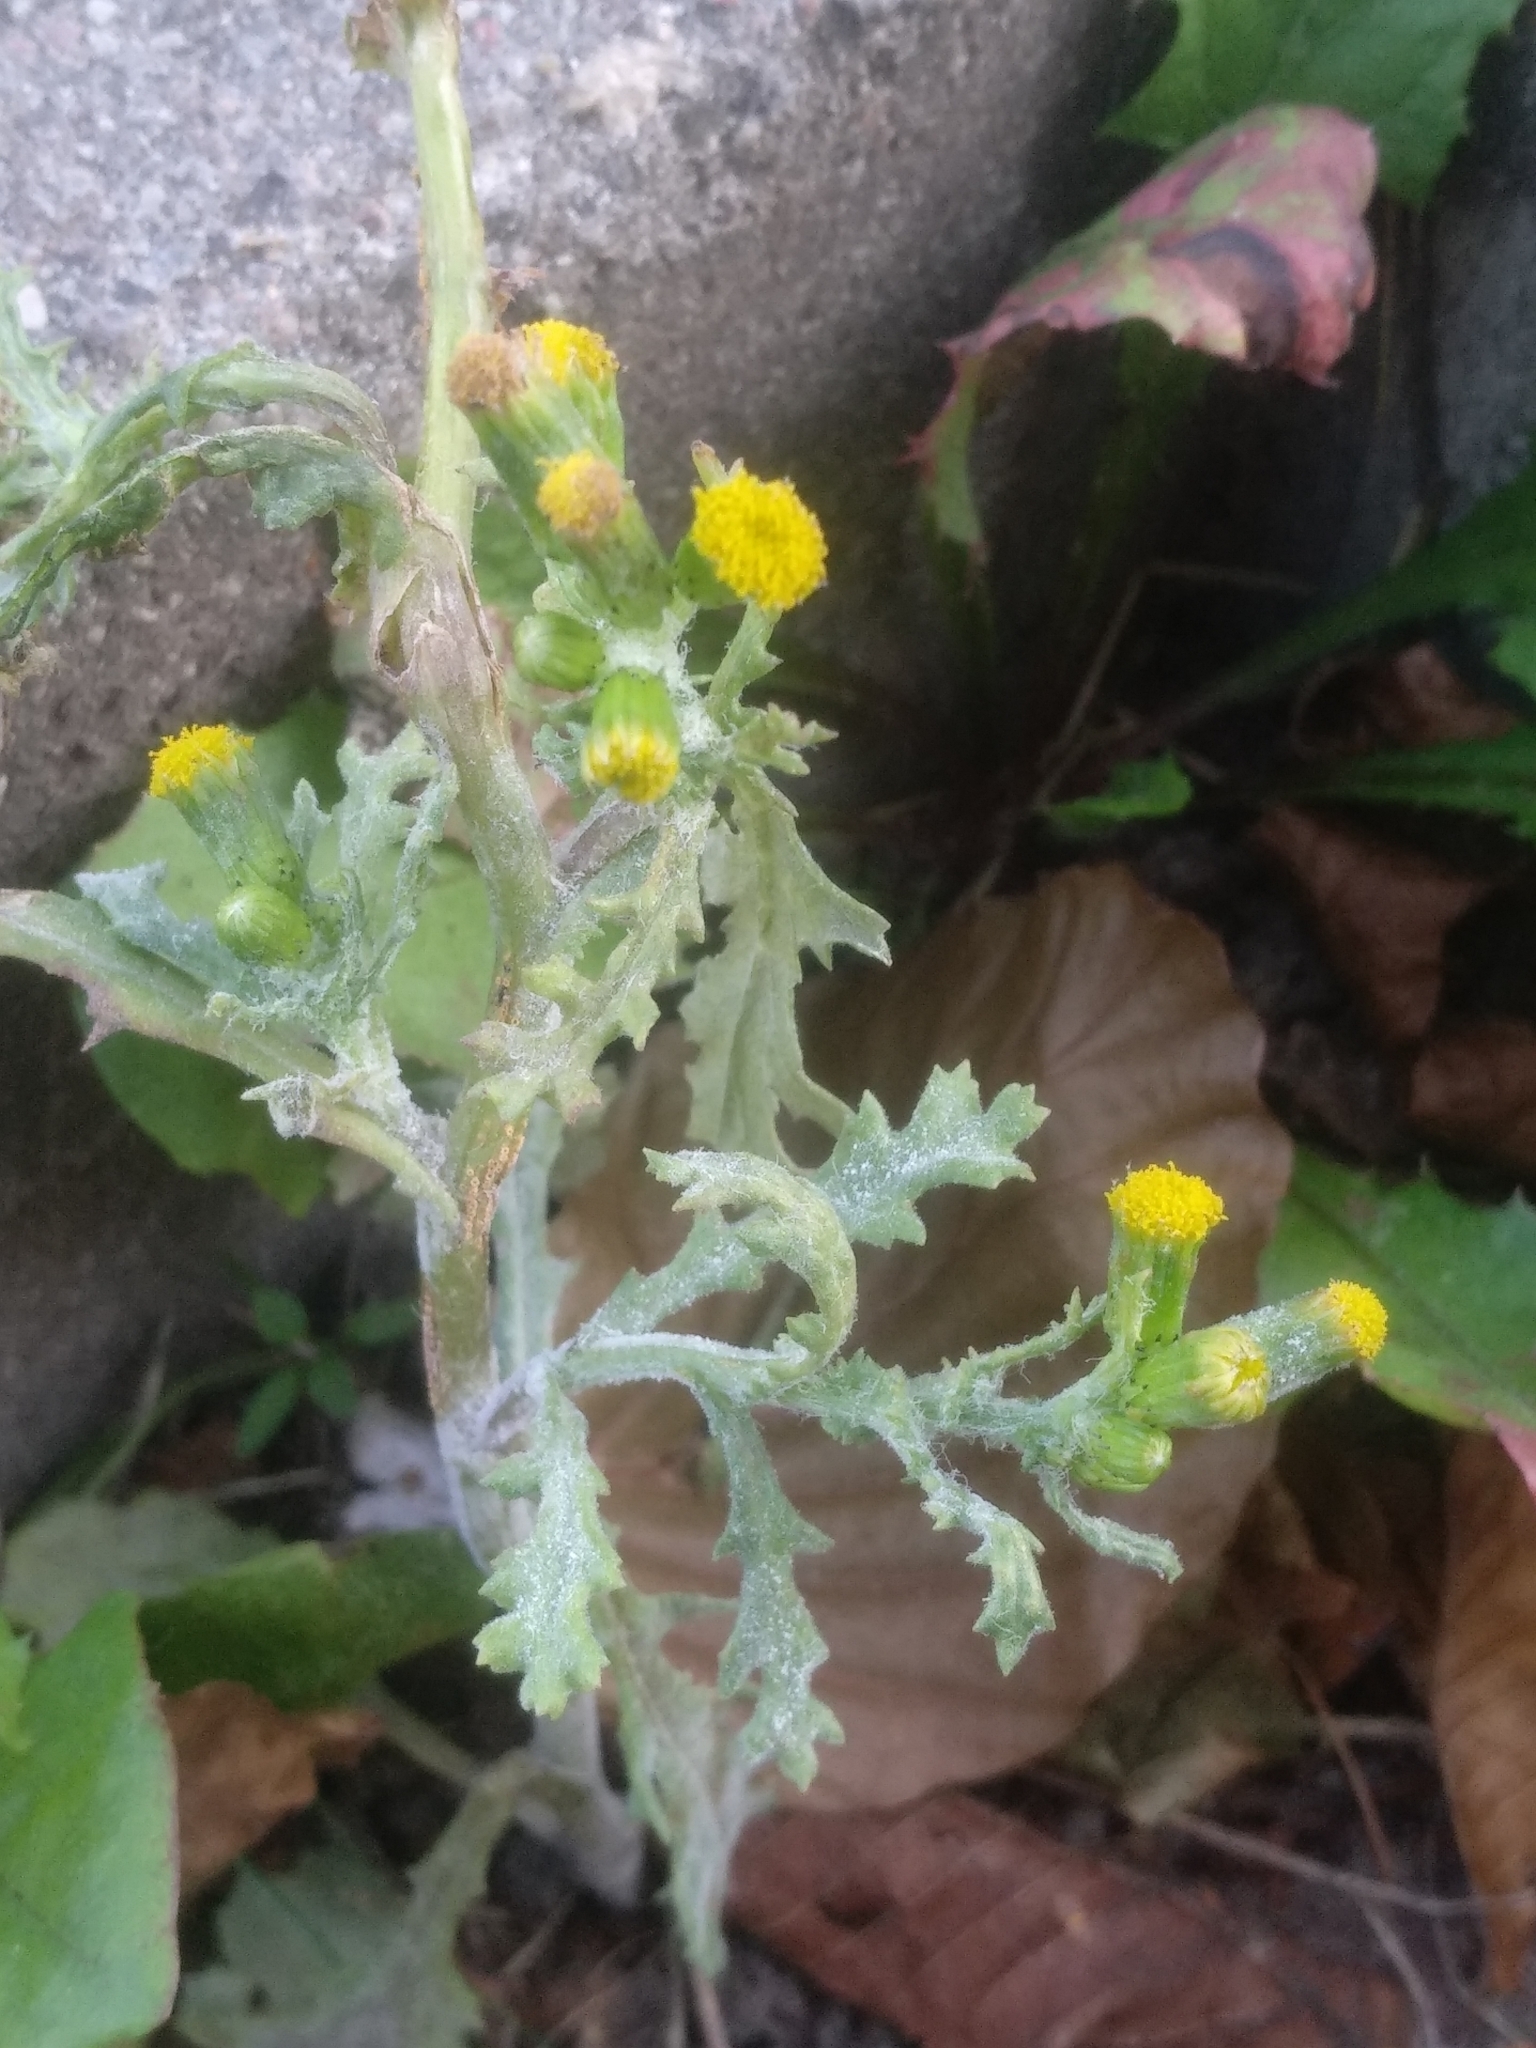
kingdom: Plantae
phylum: Tracheophyta
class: Magnoliopsida
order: Asterales
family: Asteraceae
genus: Senecio
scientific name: Senecio vulgaris
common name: Old-man-in-the-spring
